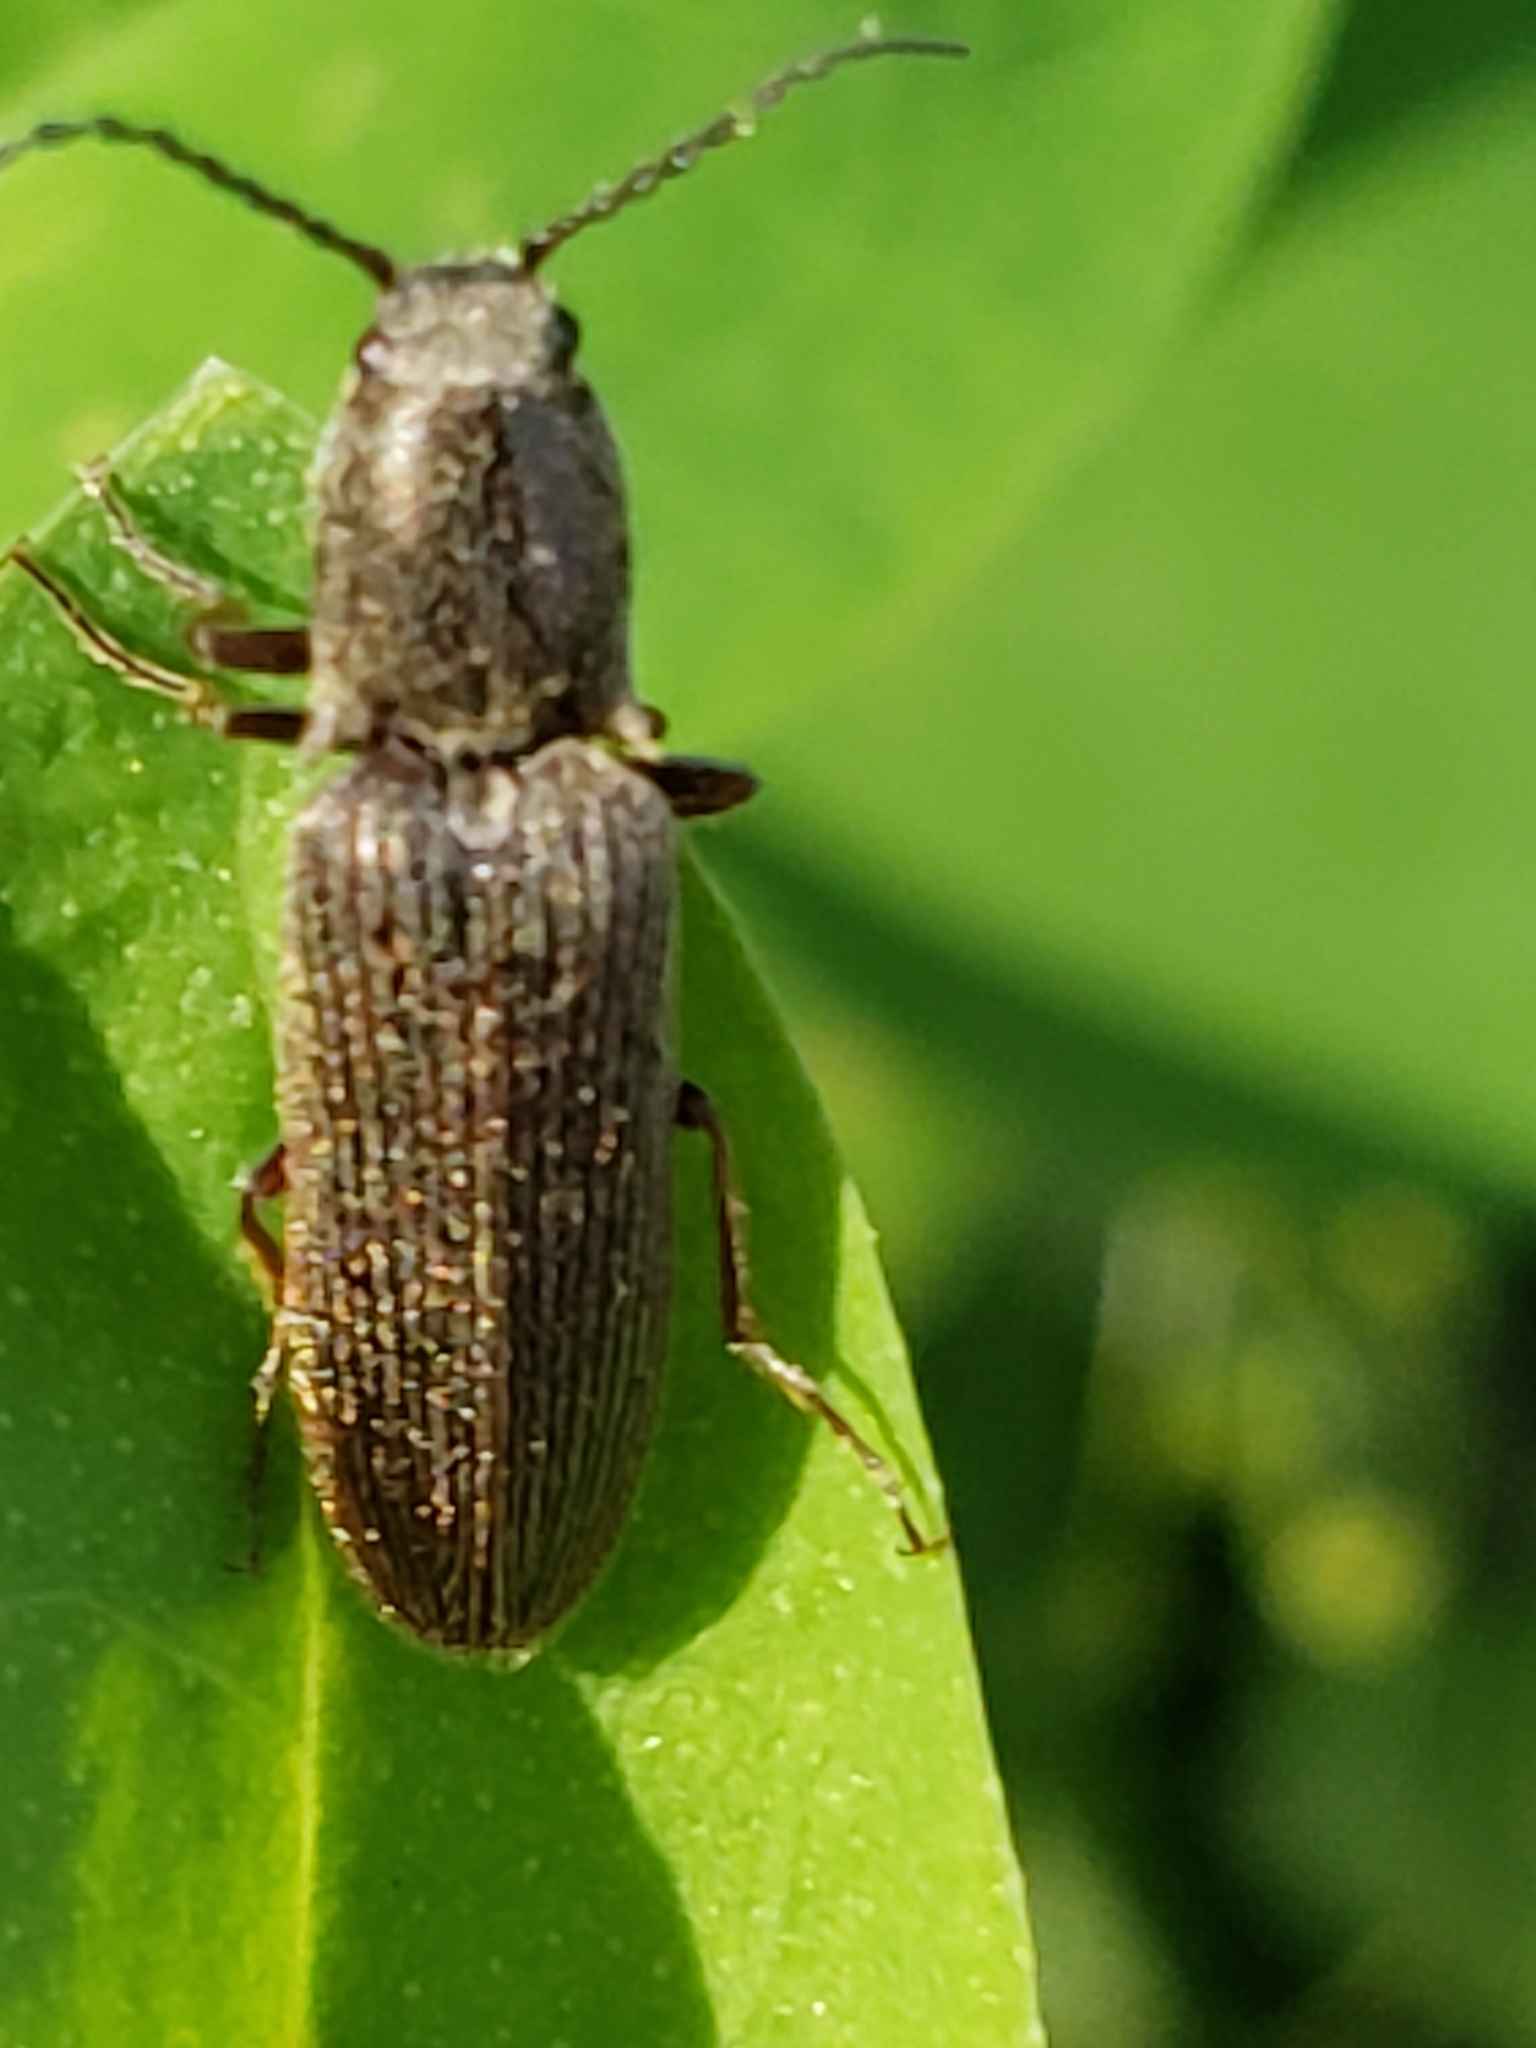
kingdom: Animalia
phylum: Arthropoda
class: Insecta
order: Coleoptera
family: Elateridae
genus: Sylvanelater
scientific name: Sylvanelater cylindriformis
